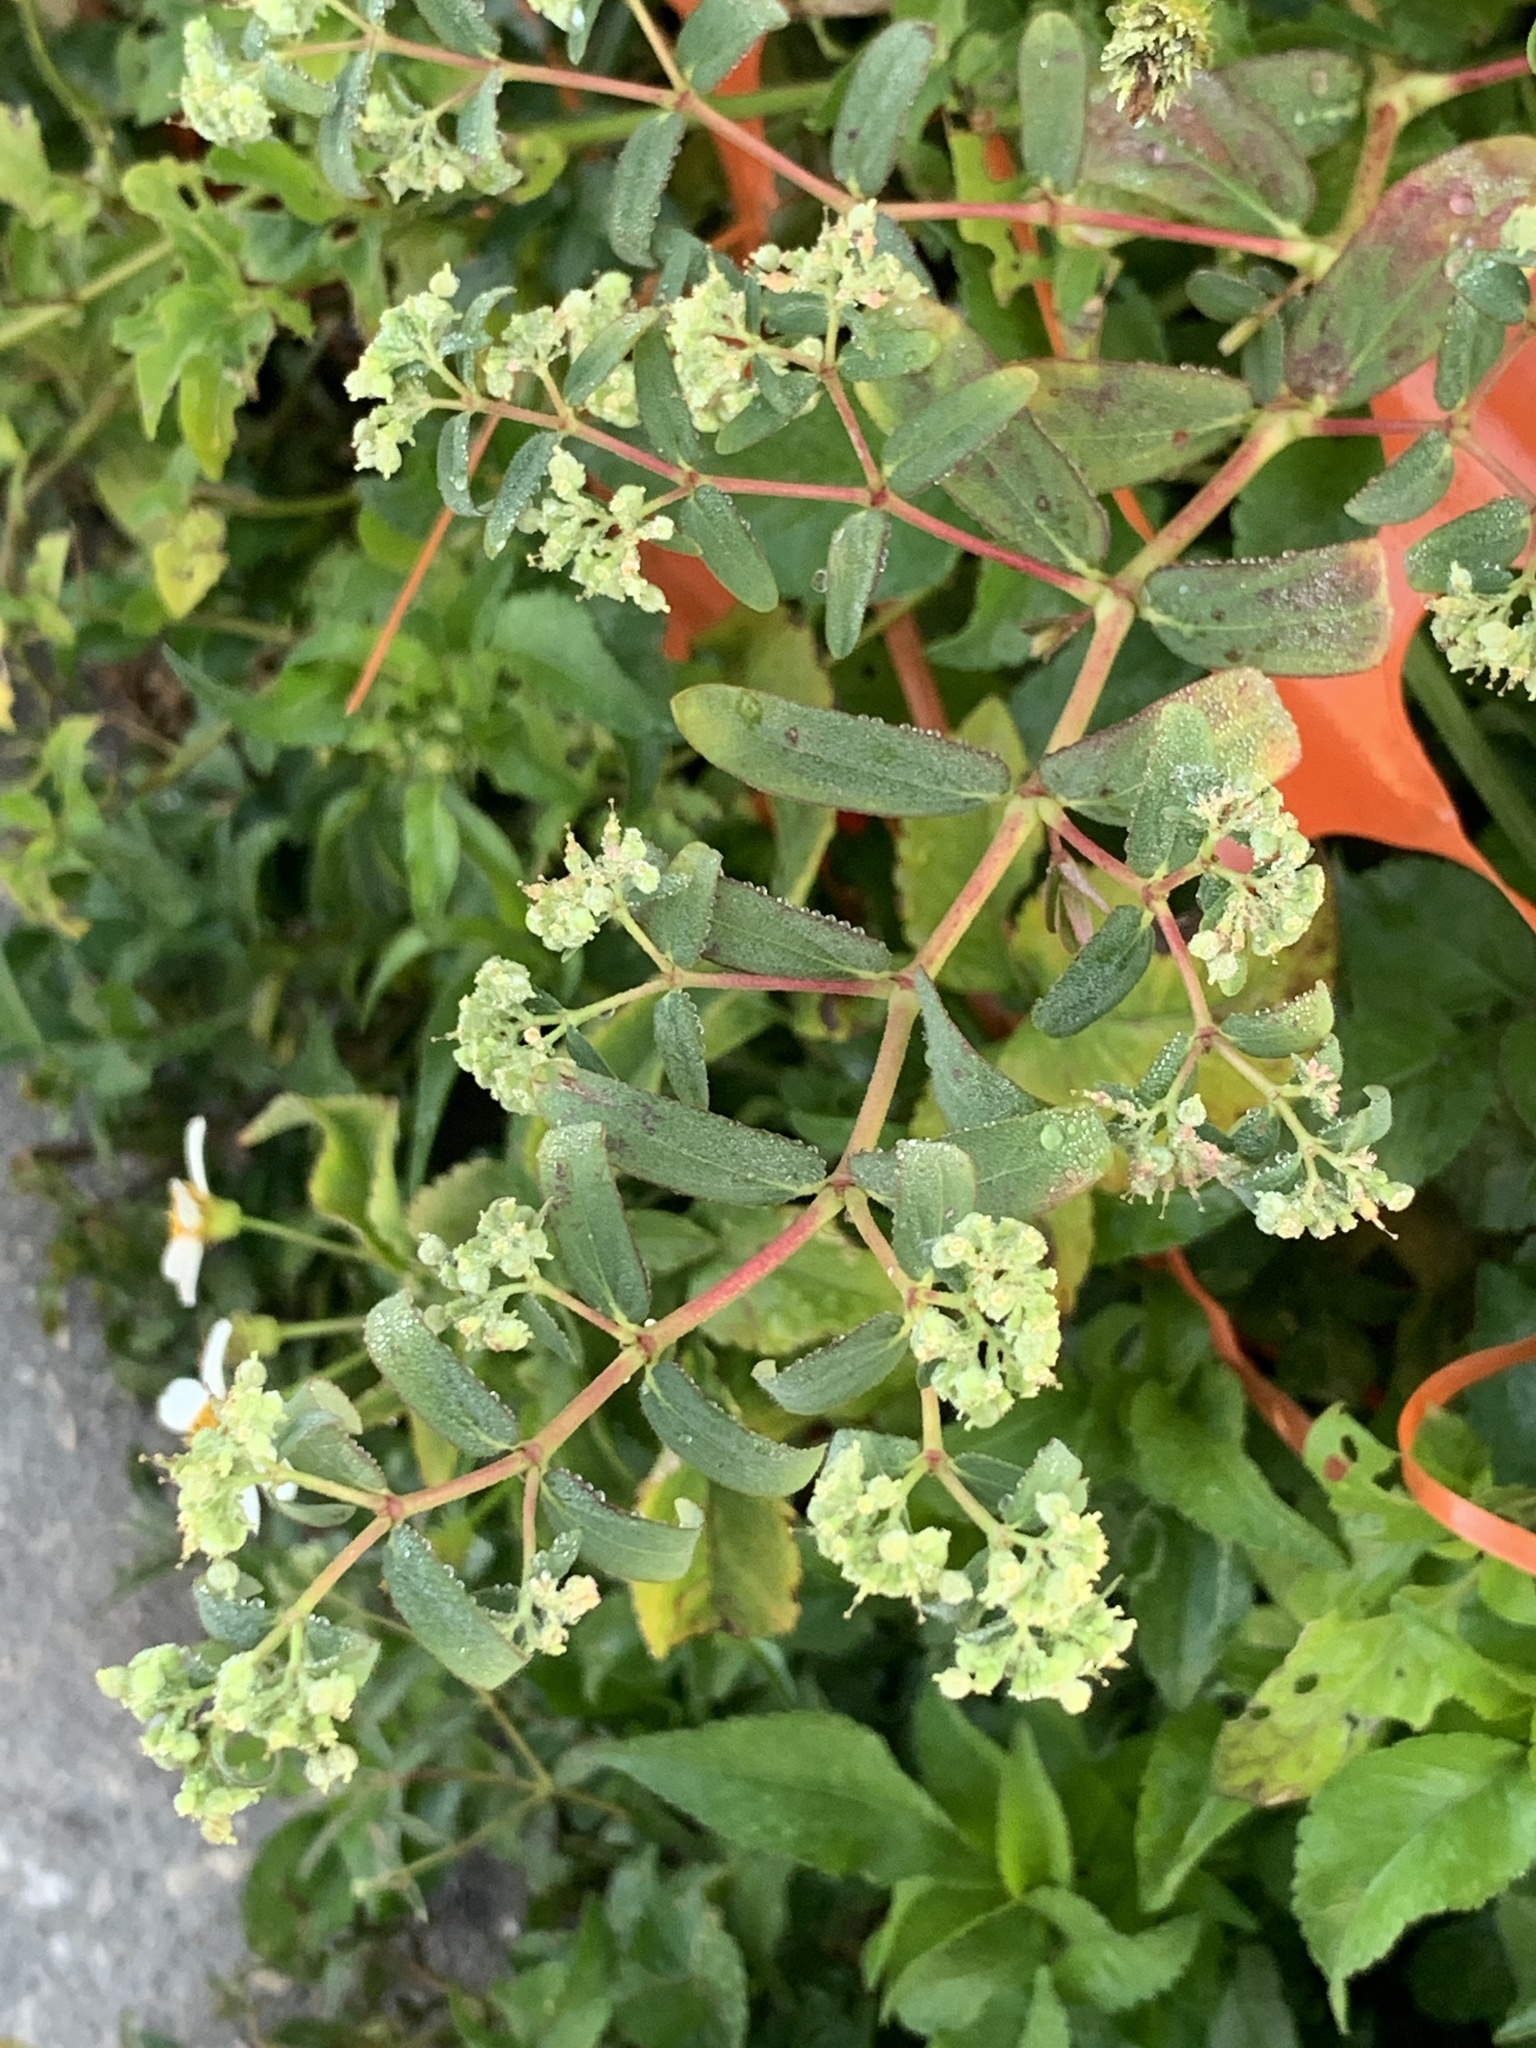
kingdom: Plantae
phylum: Tracheophyta
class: Magnoliopsida
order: Malpighiales
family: Euphorbiaceae
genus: Euphorbia
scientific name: Euphorbia lasiocarpa
